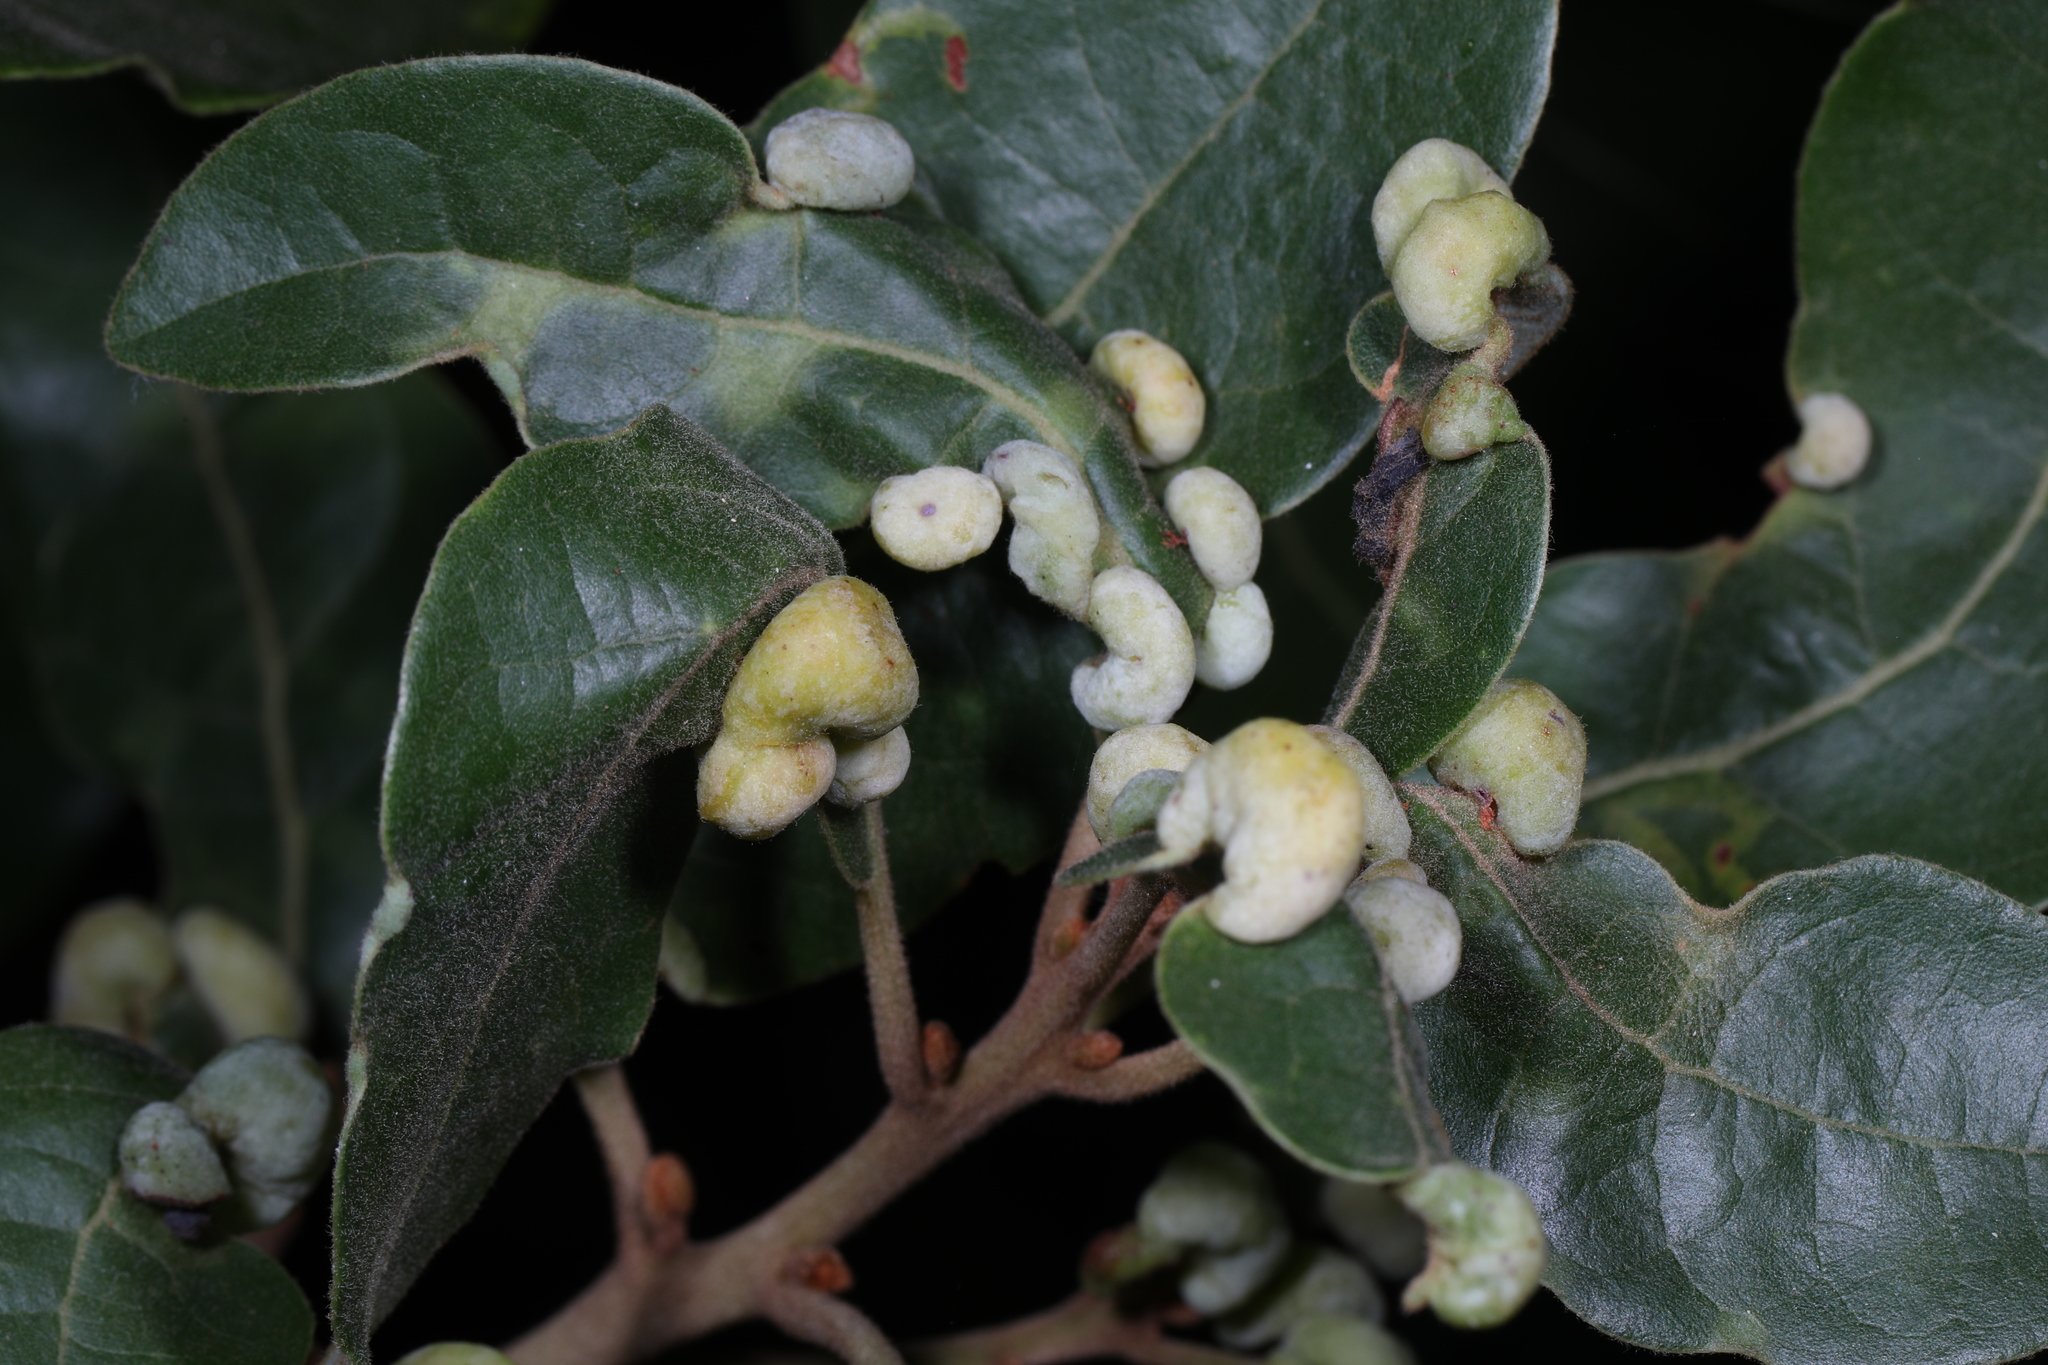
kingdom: Animalia
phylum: Arthropoda
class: Insecta
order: Hemiptera
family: Triozidae
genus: Trioza
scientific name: Trioza magnoliae
